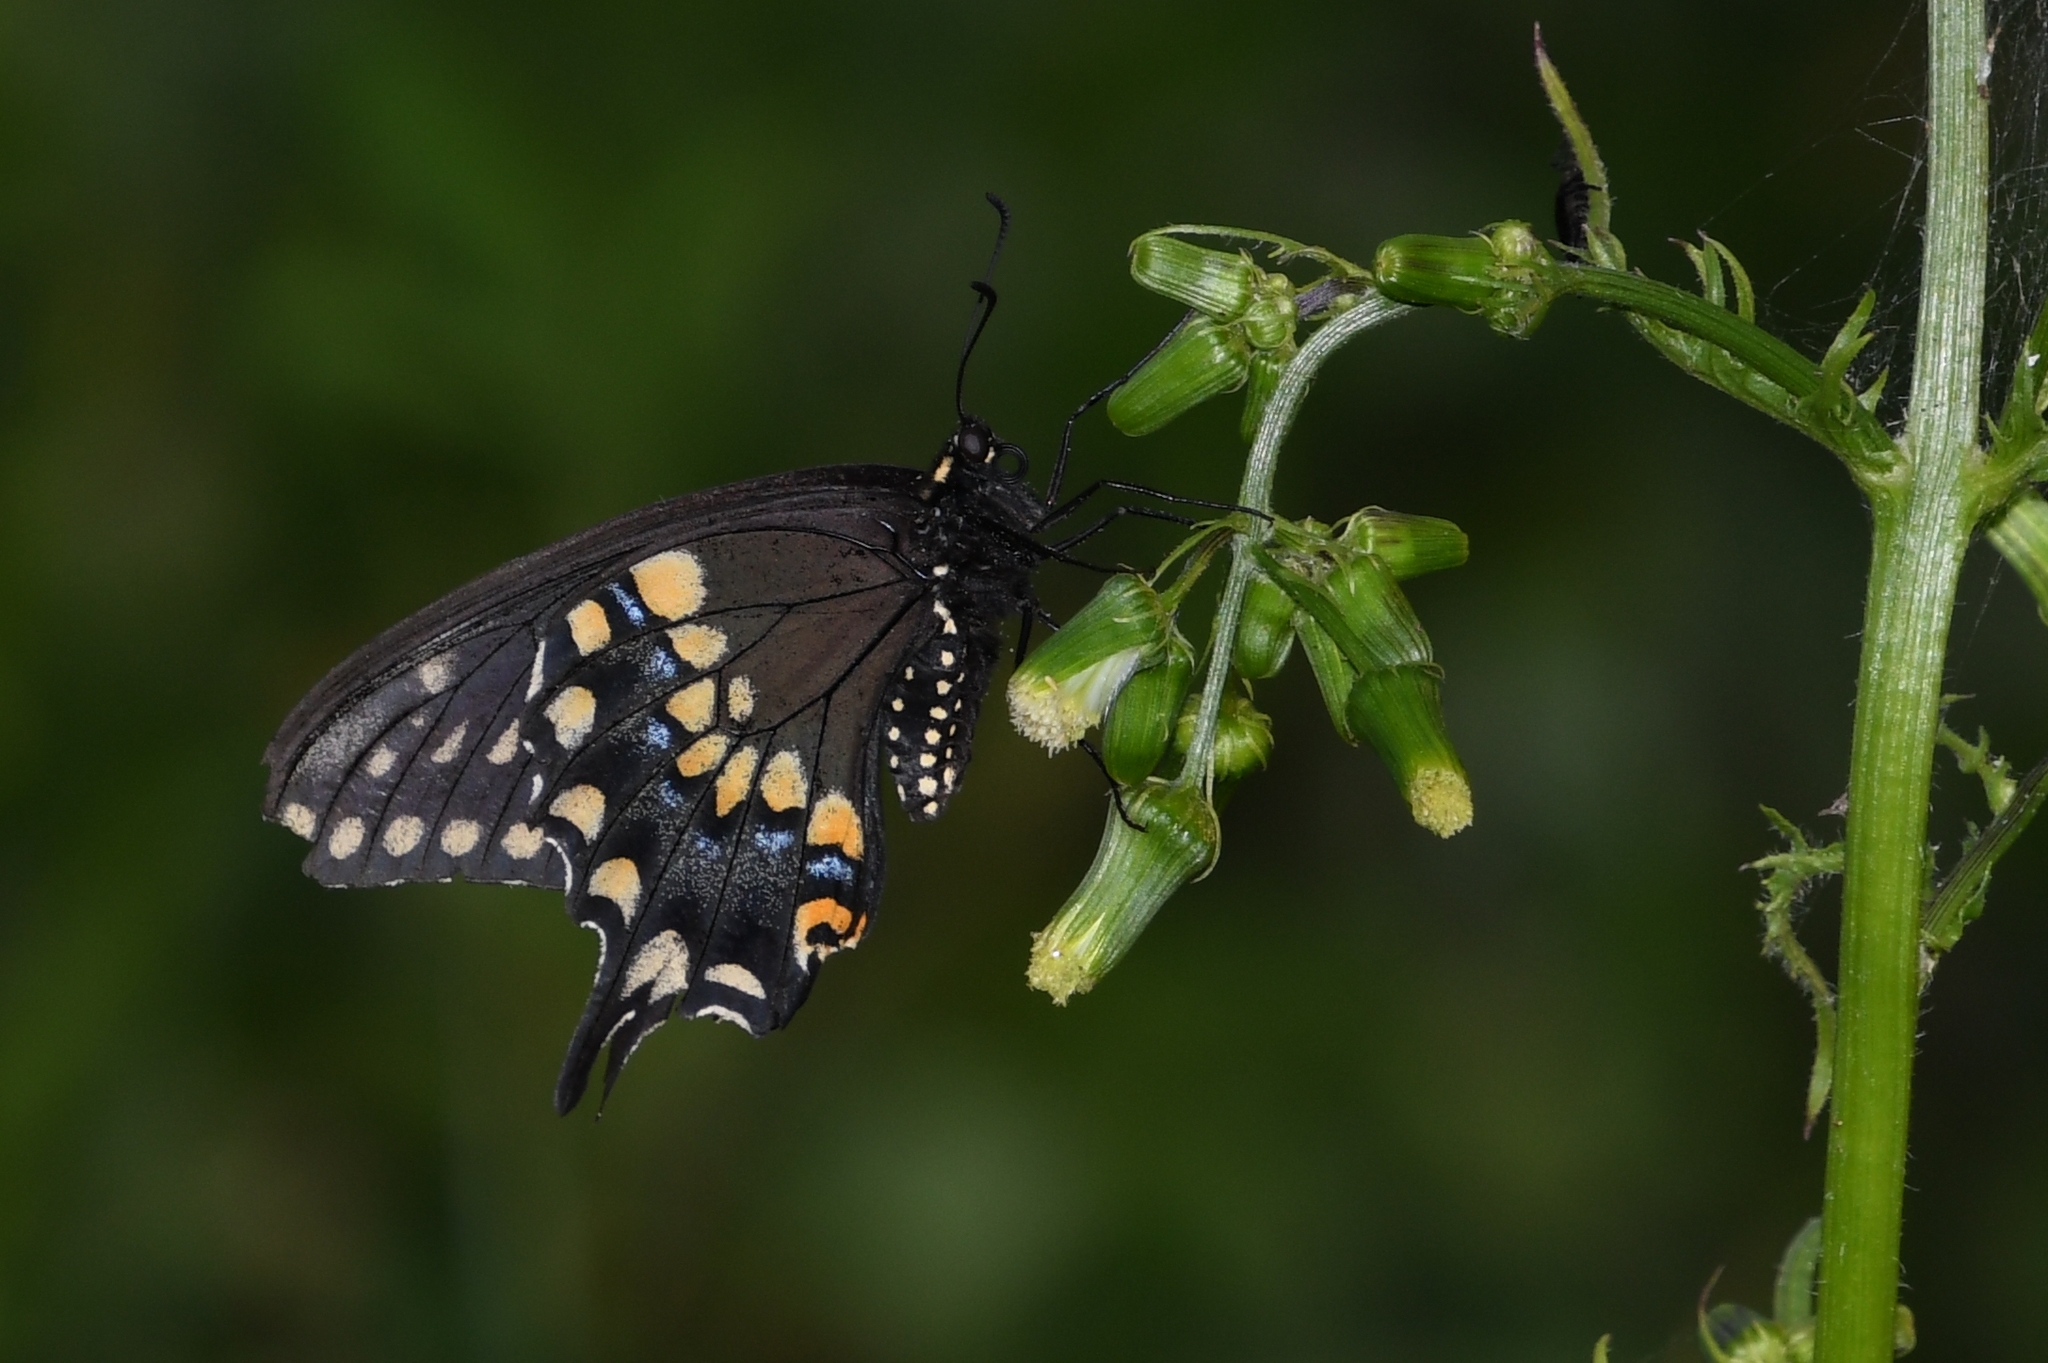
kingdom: Animalia
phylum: Arthropoda
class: Insecta
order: Lepidoptera
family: Papilionidae
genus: Papilio
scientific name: Papilio polyxenes
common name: Black swallowtail
